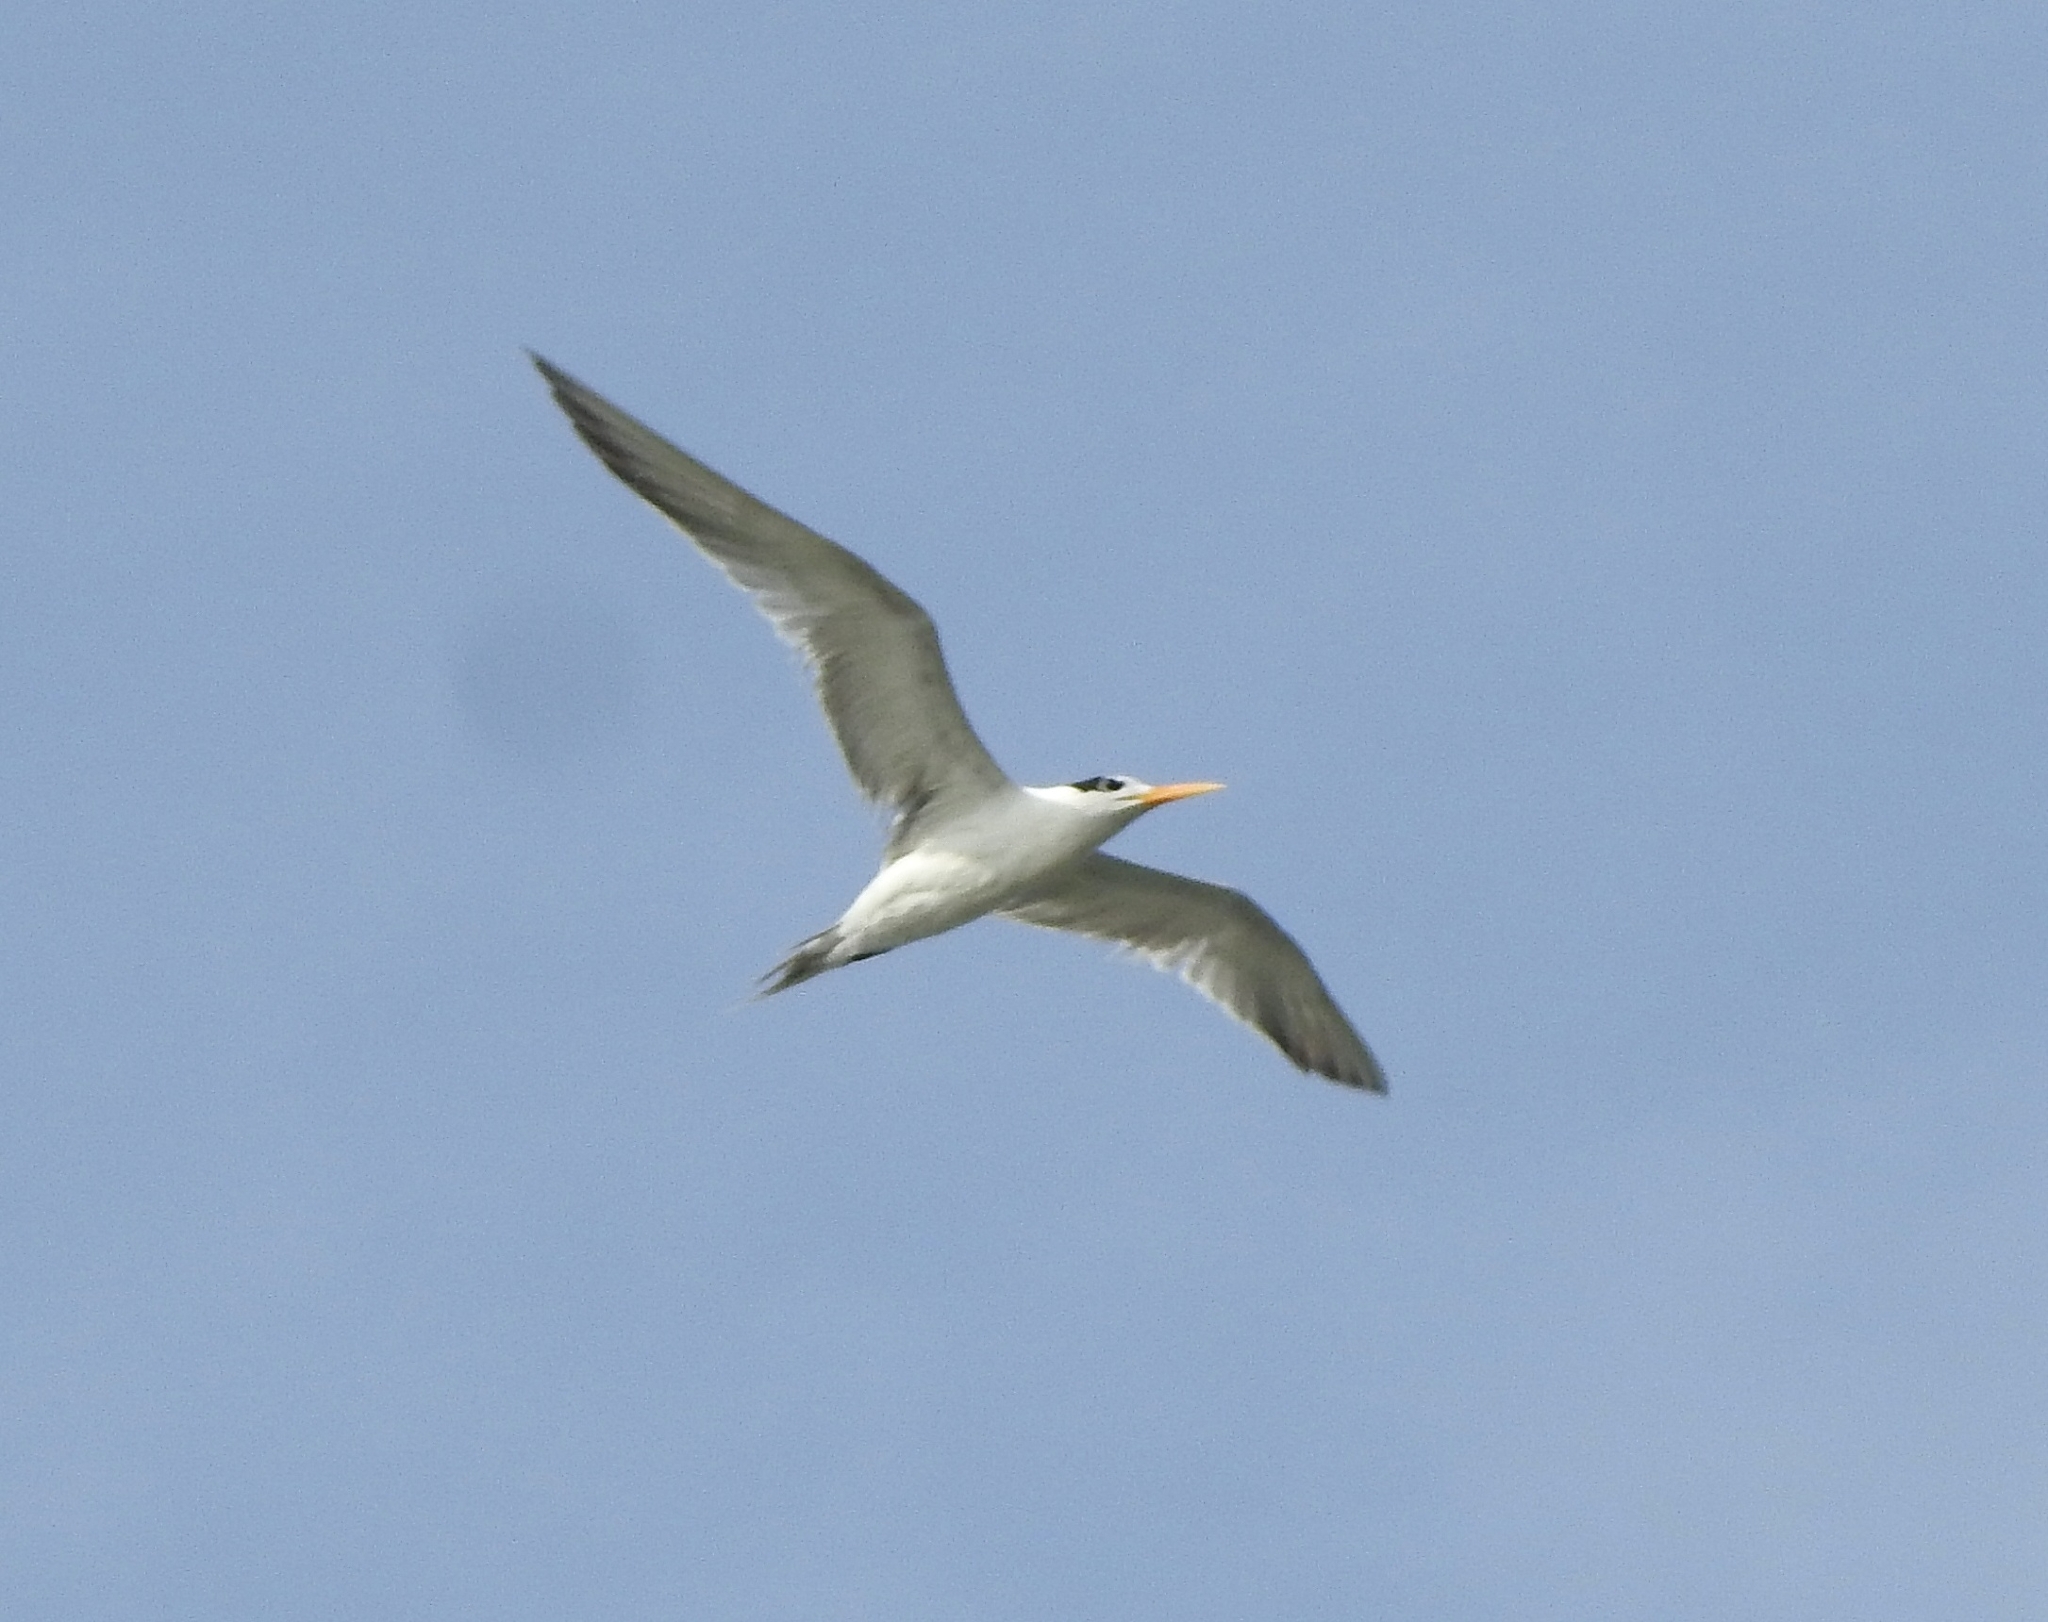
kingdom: Animalia
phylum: Chordata
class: Aves
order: Charadriiformes
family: Laridae
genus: Thalasseus
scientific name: Thalasseus bengalensis
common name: Lesser crested tern
